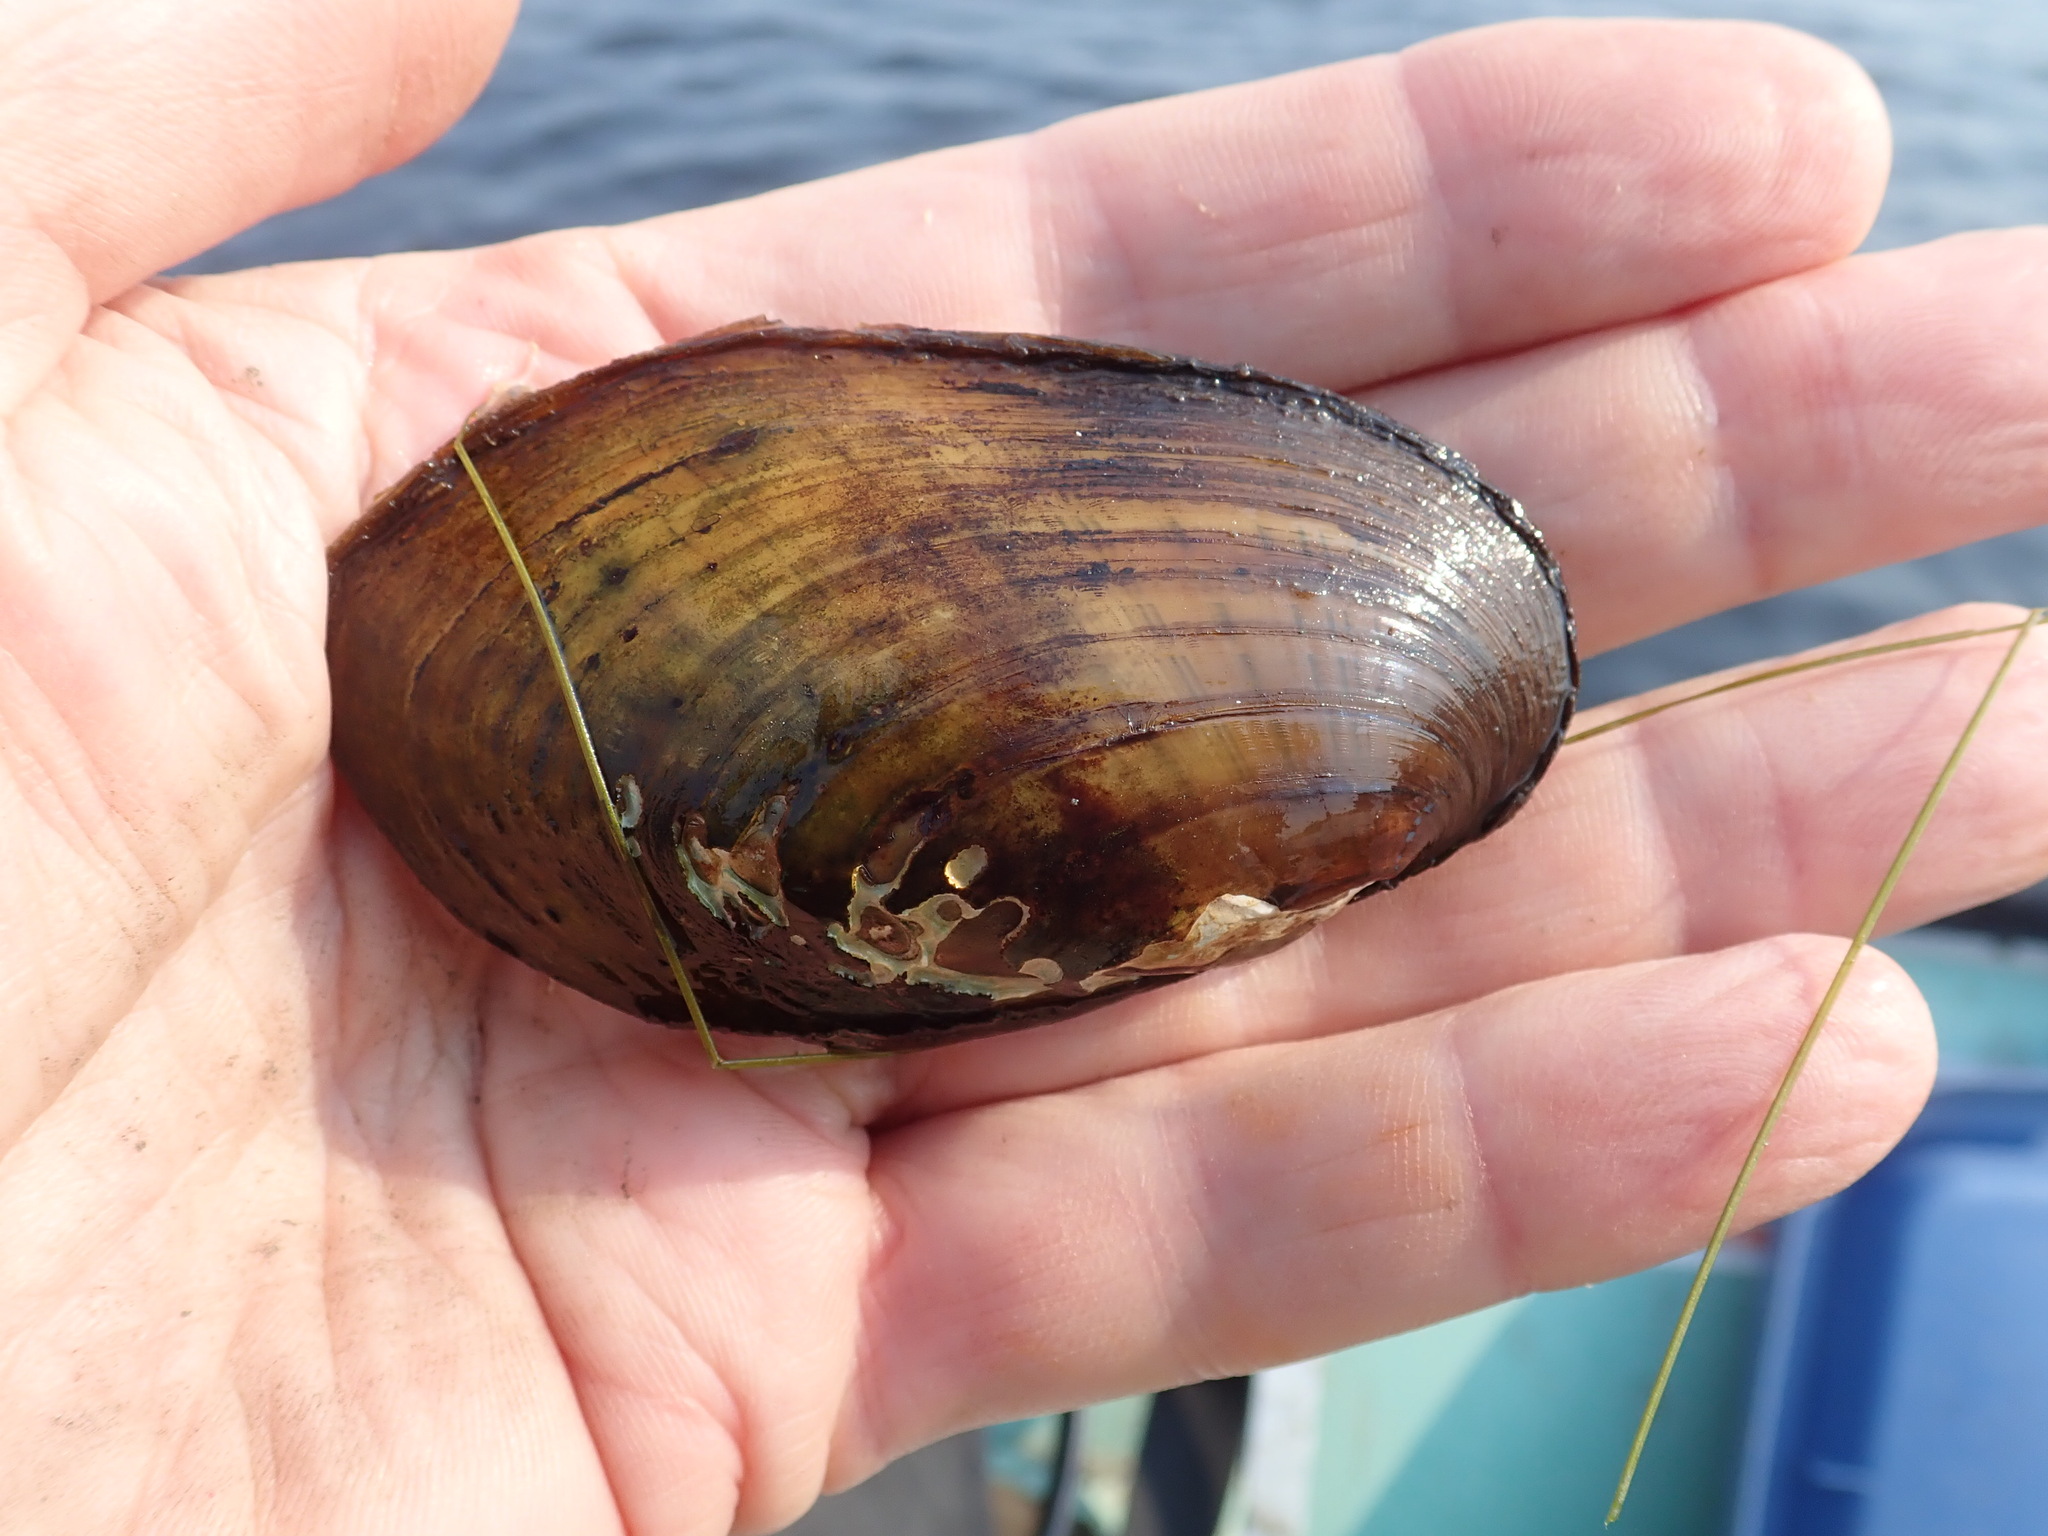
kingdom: Animalia
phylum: Mollusca
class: Bivalvia
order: Unionida
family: Unionidae
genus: Lampsilis
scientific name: Lampsilis siliquoidea
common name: Fatmucket
